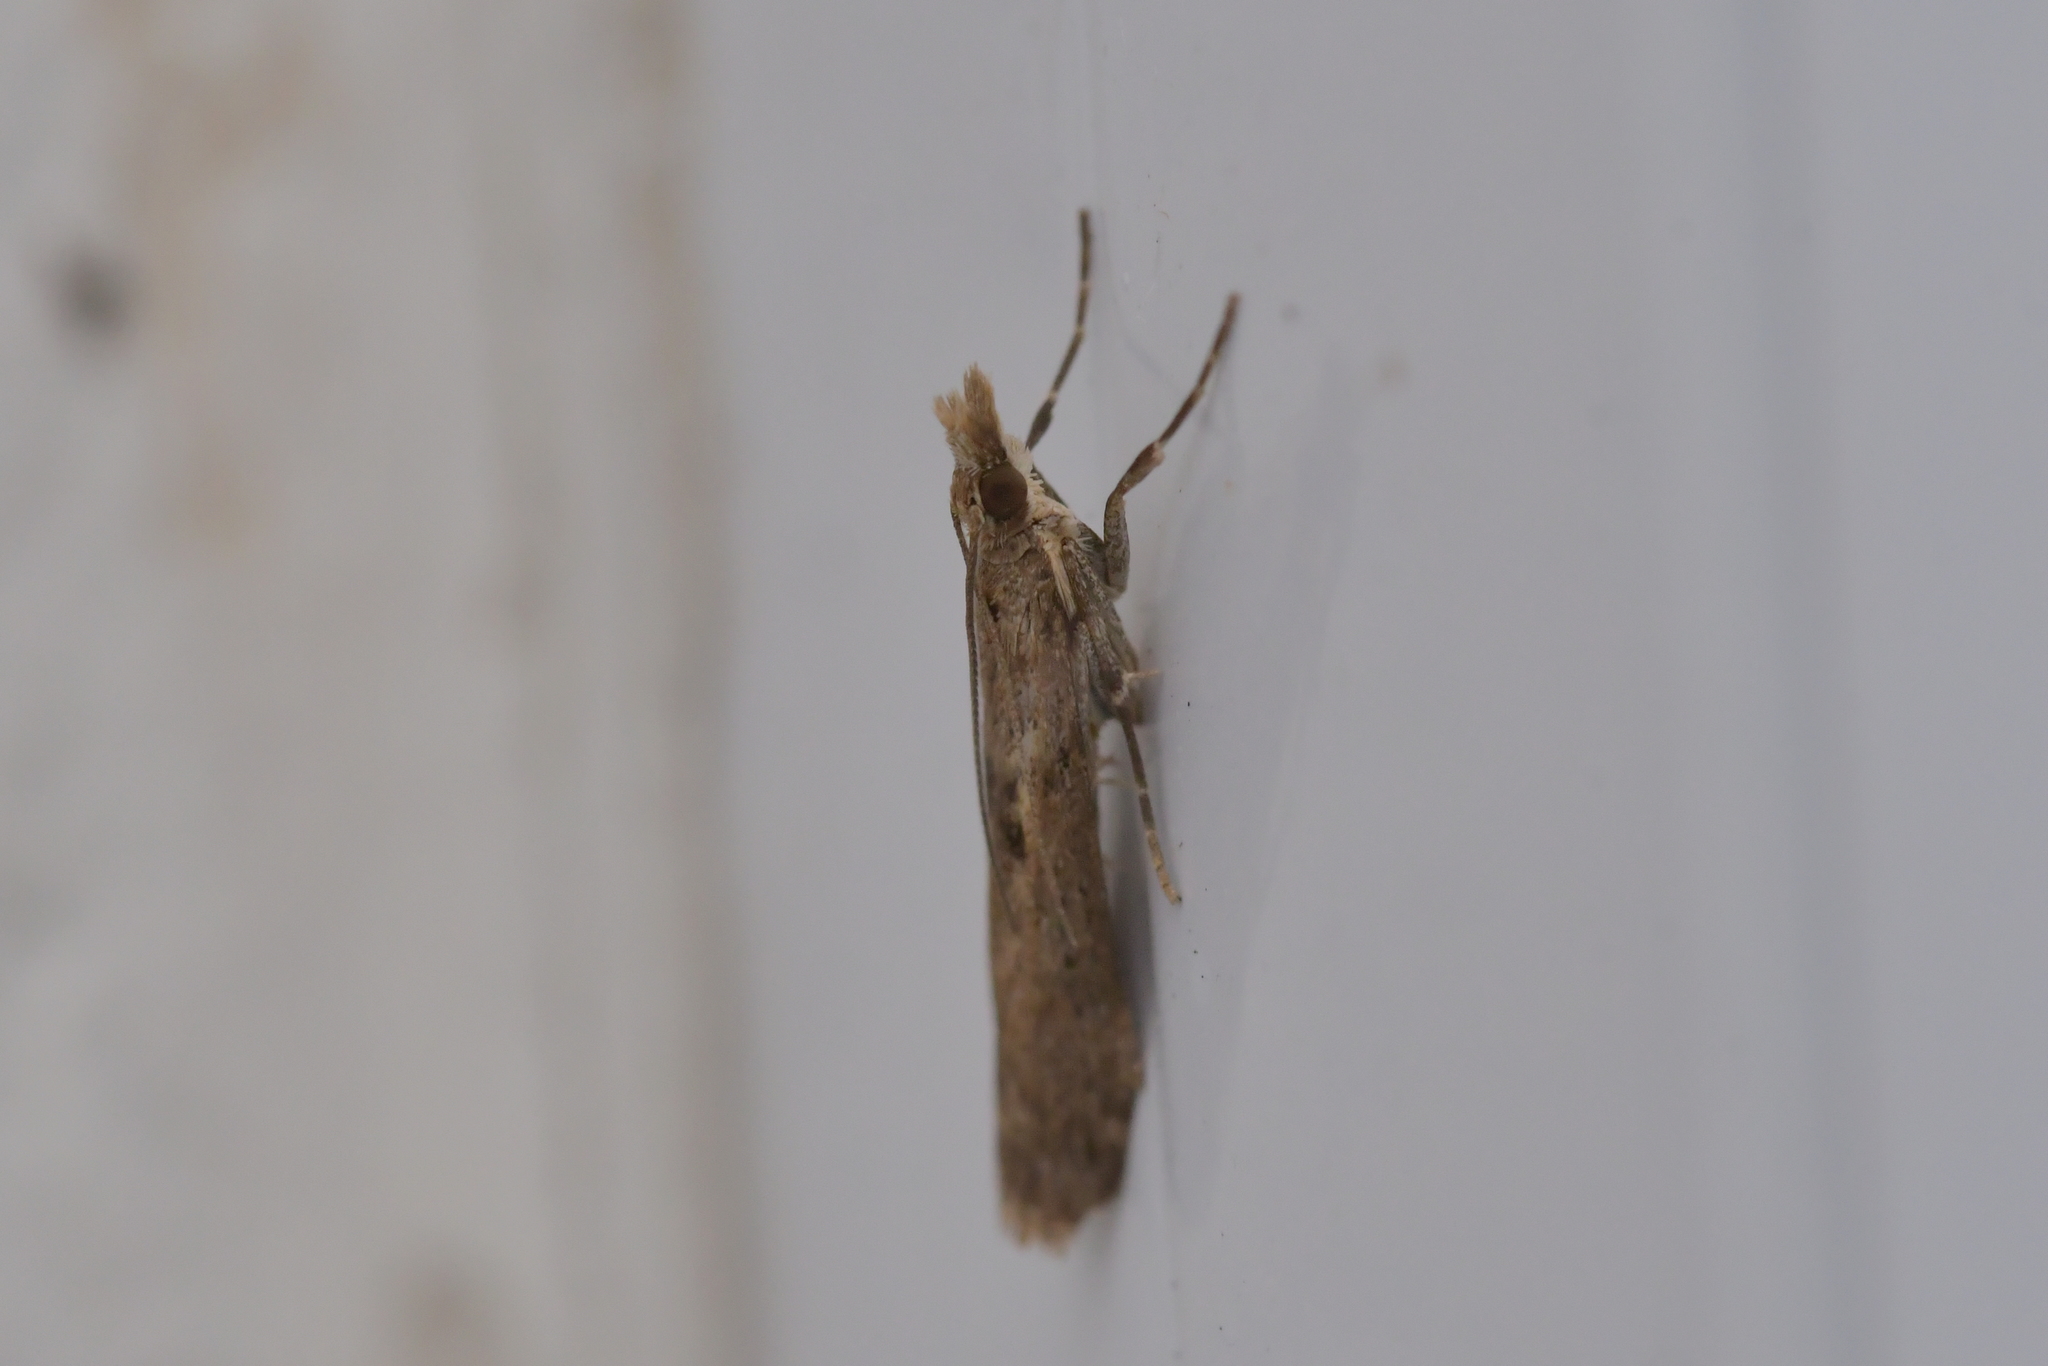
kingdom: Animalia
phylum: Arthropoda
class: Insecta
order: Lepidoptera
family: Crambidae
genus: Eudonia
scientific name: Eudonia leptalea
